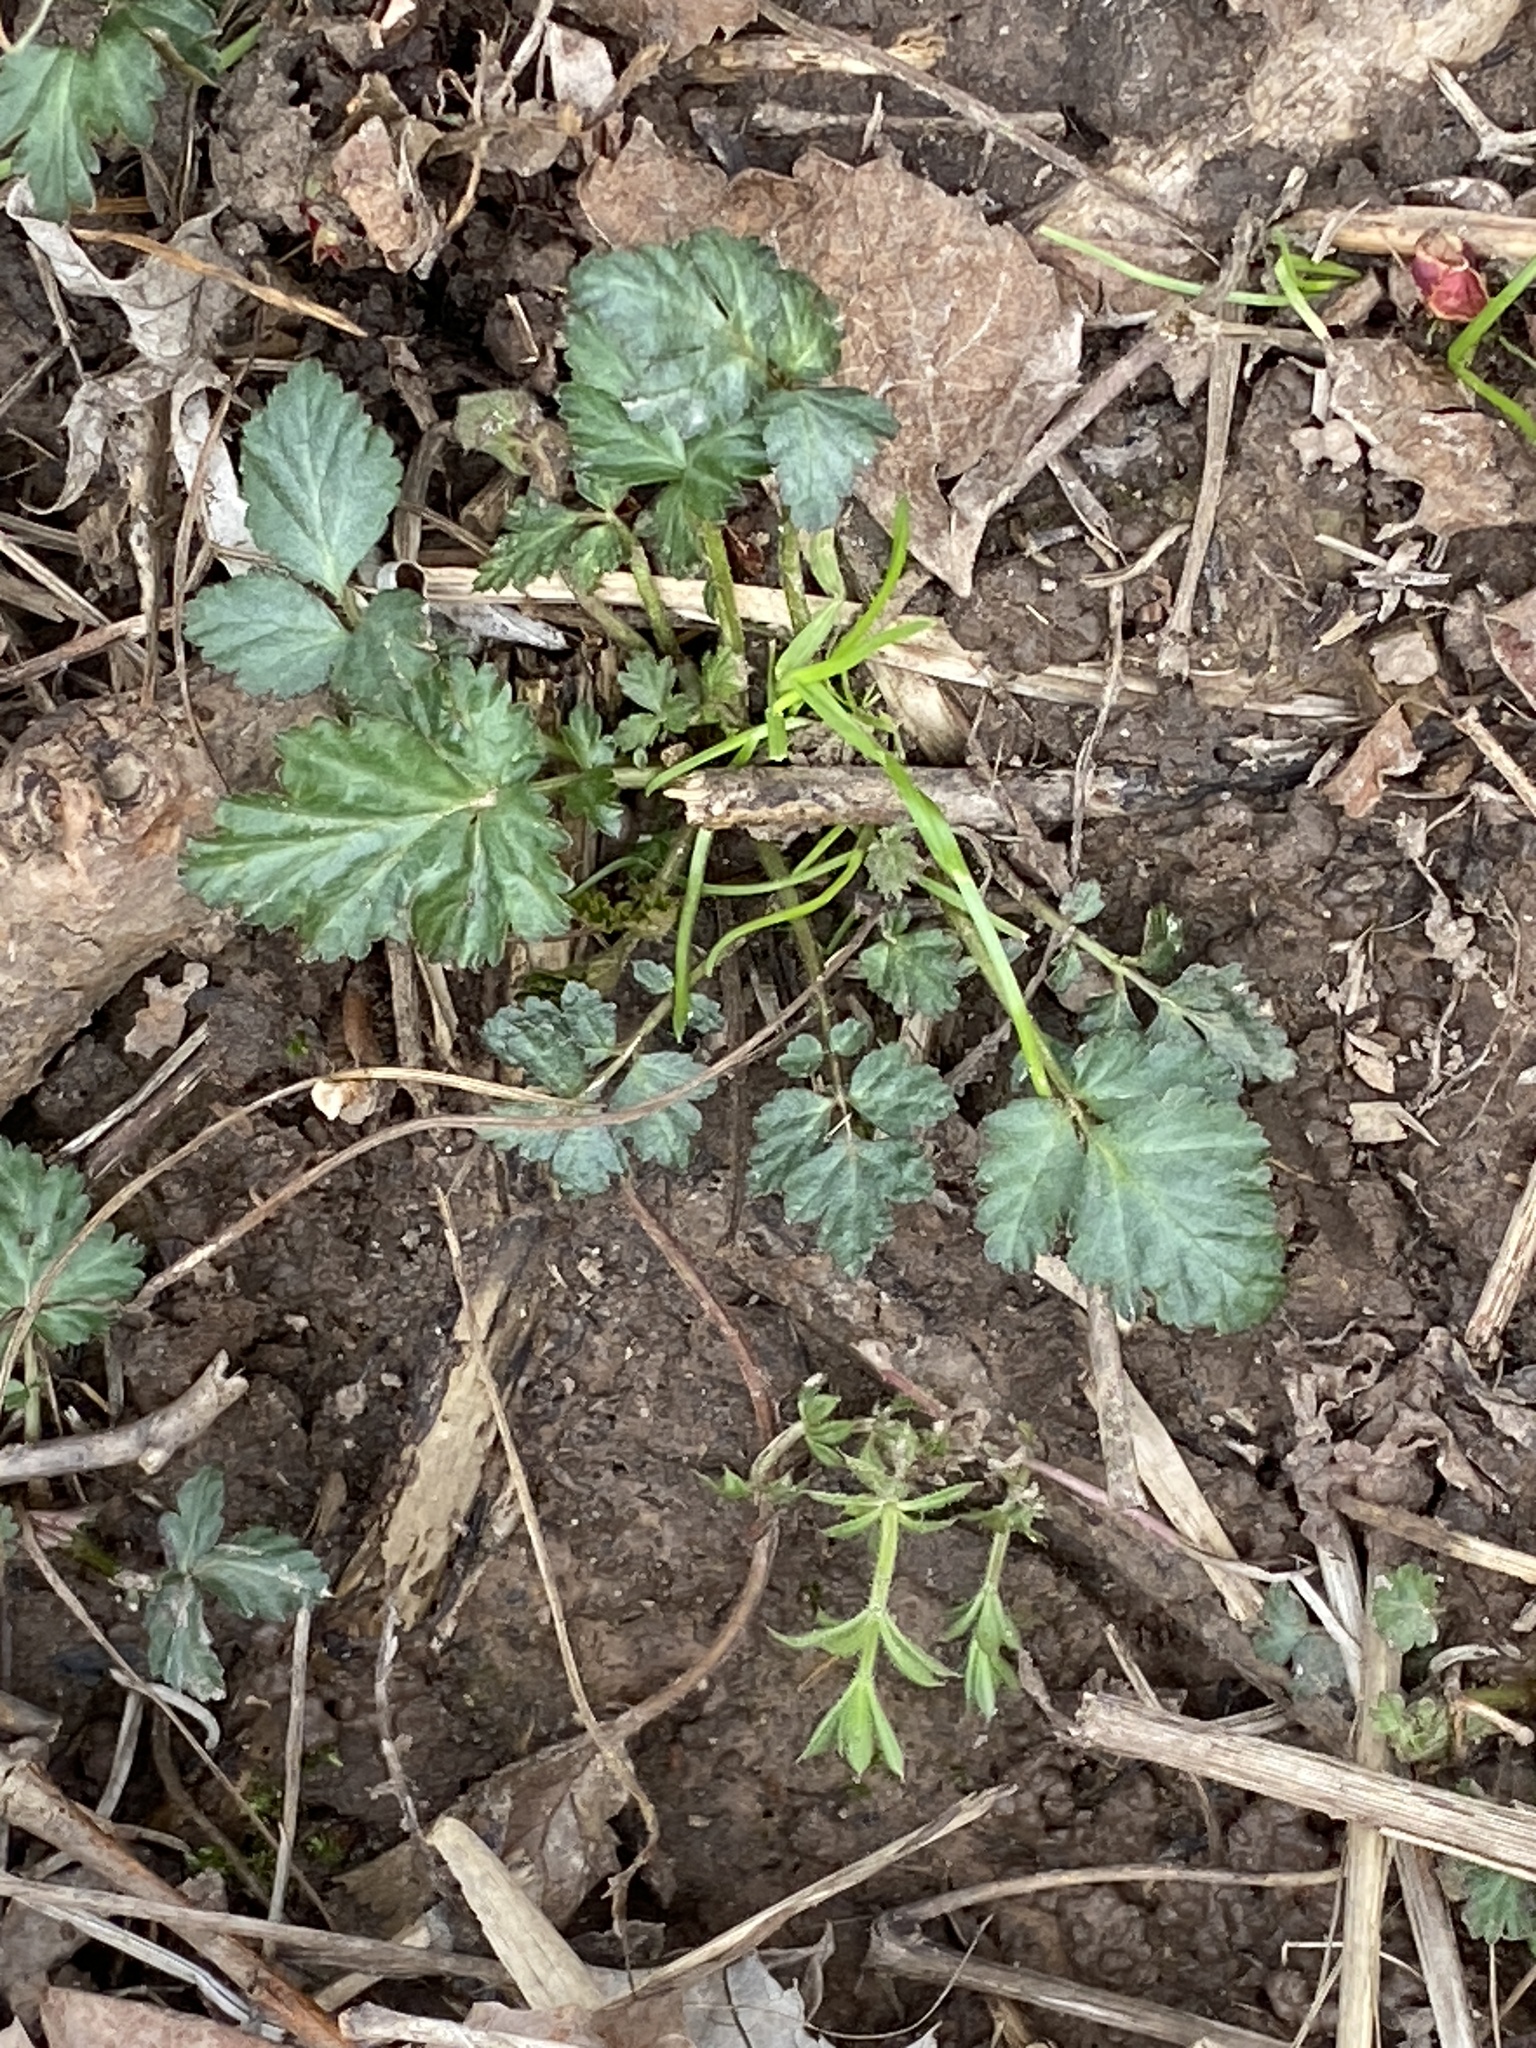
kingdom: Plantae
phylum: Tracheophyta
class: Magnoliopsida
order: Rosales
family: Rosaceae
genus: Geum
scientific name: Geum canadense
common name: White avens
